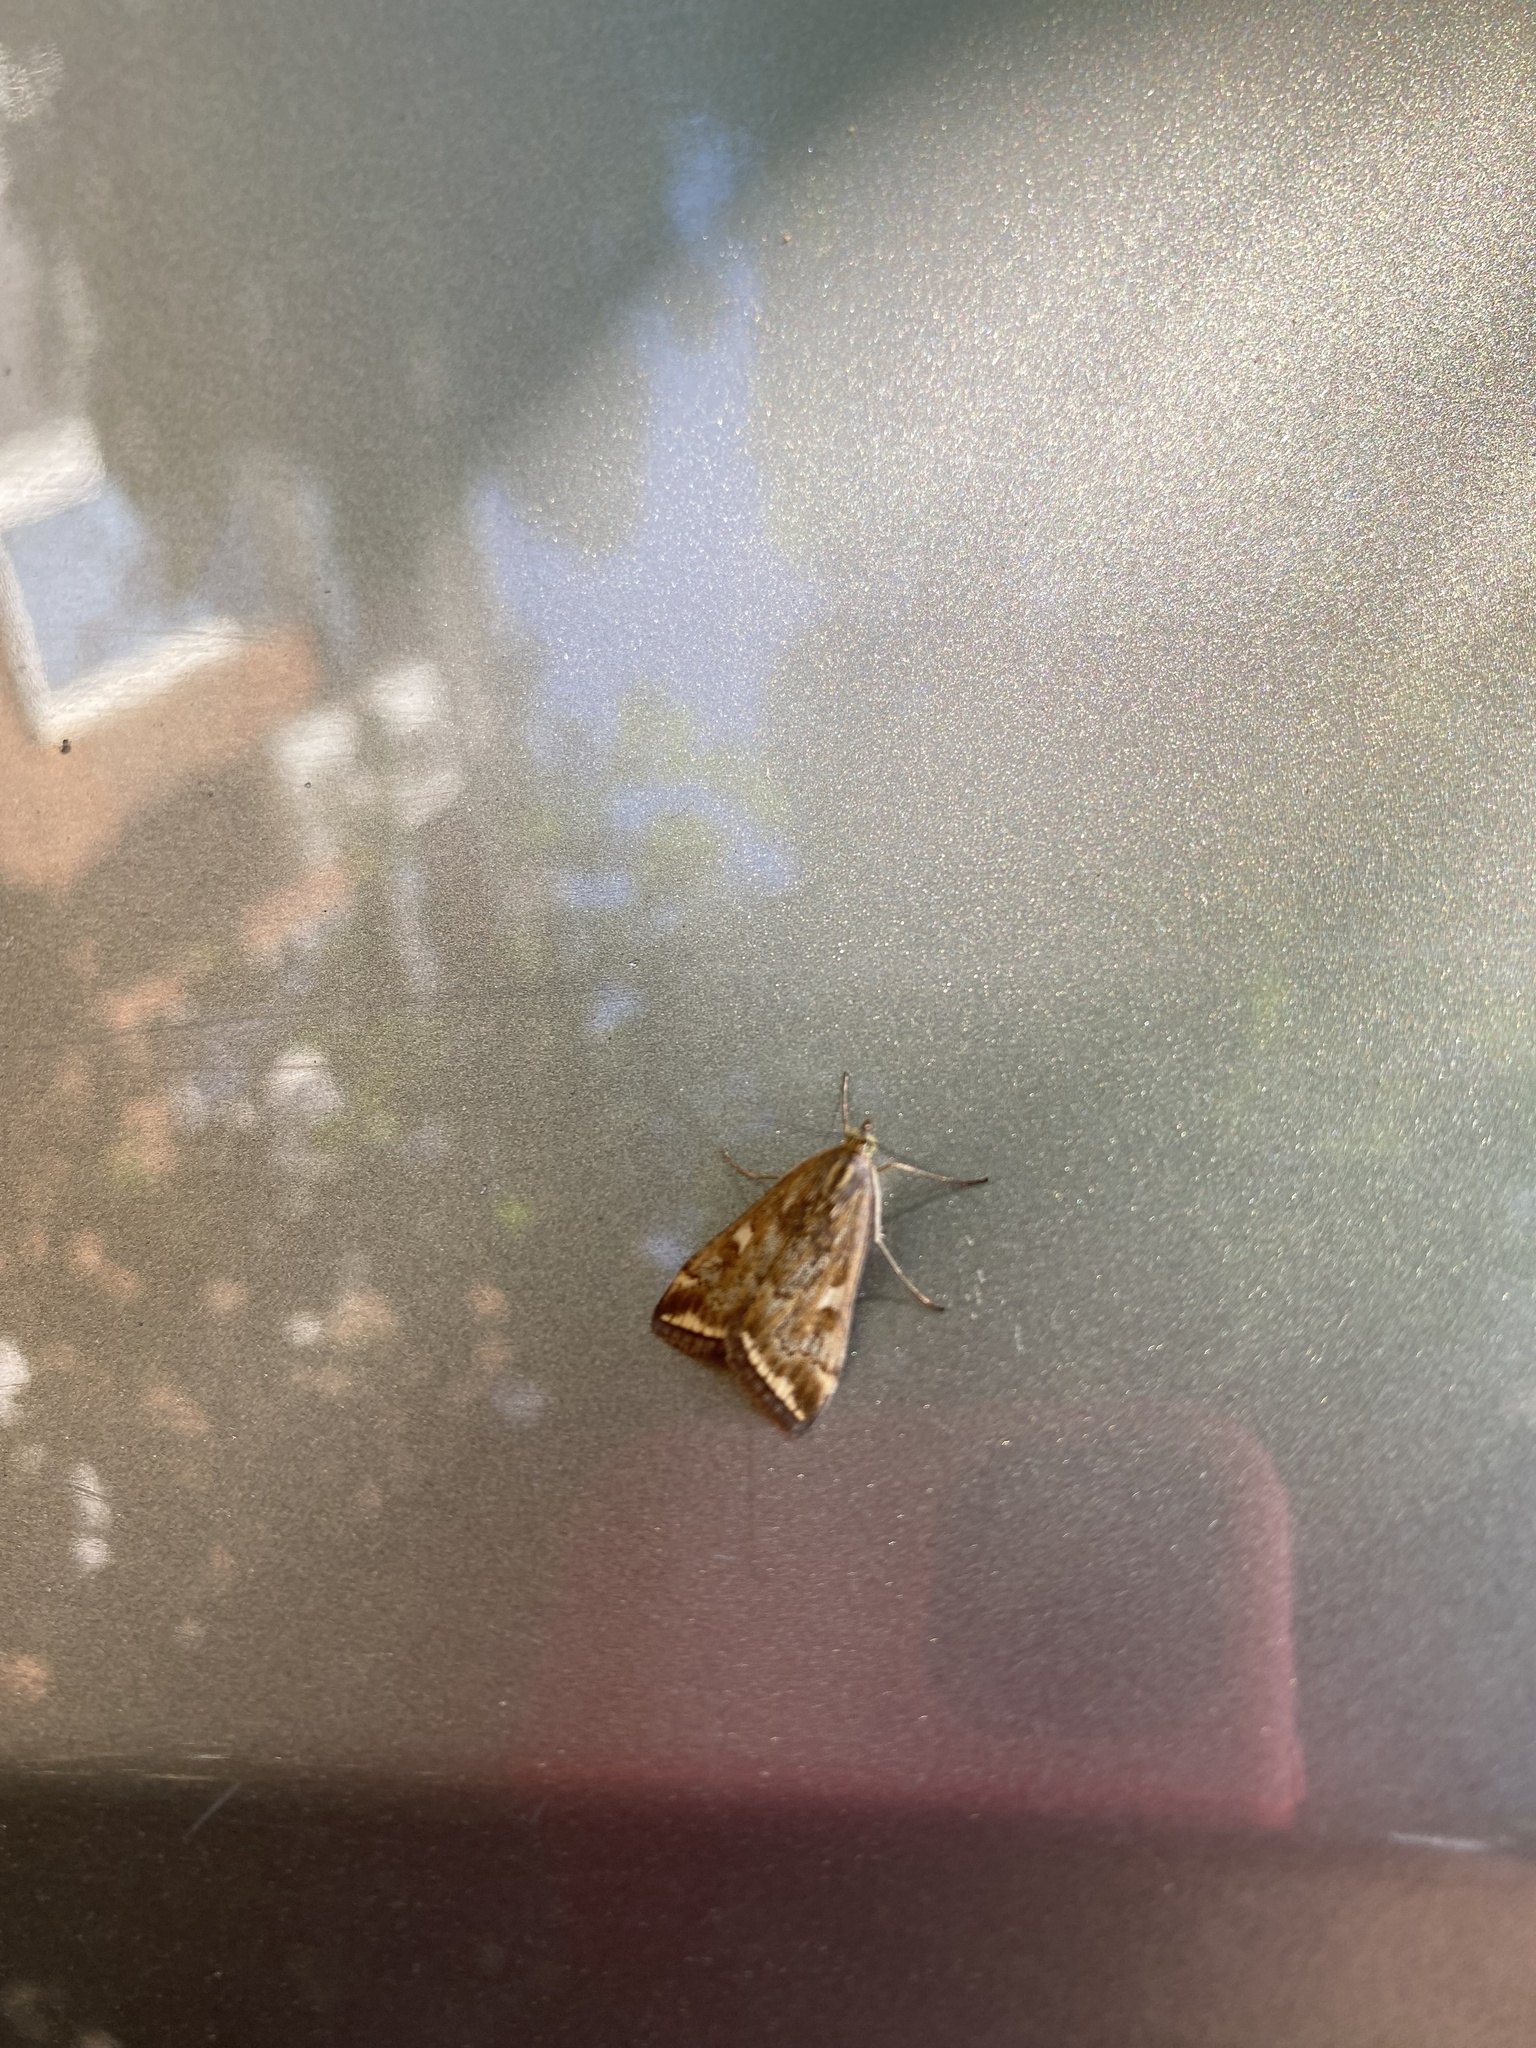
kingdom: Animalia
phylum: Arthropoda
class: Insecta
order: Lepidoptera
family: Crambidae
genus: Loxostege
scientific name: Loxostege sticticalis
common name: Crambid moth
